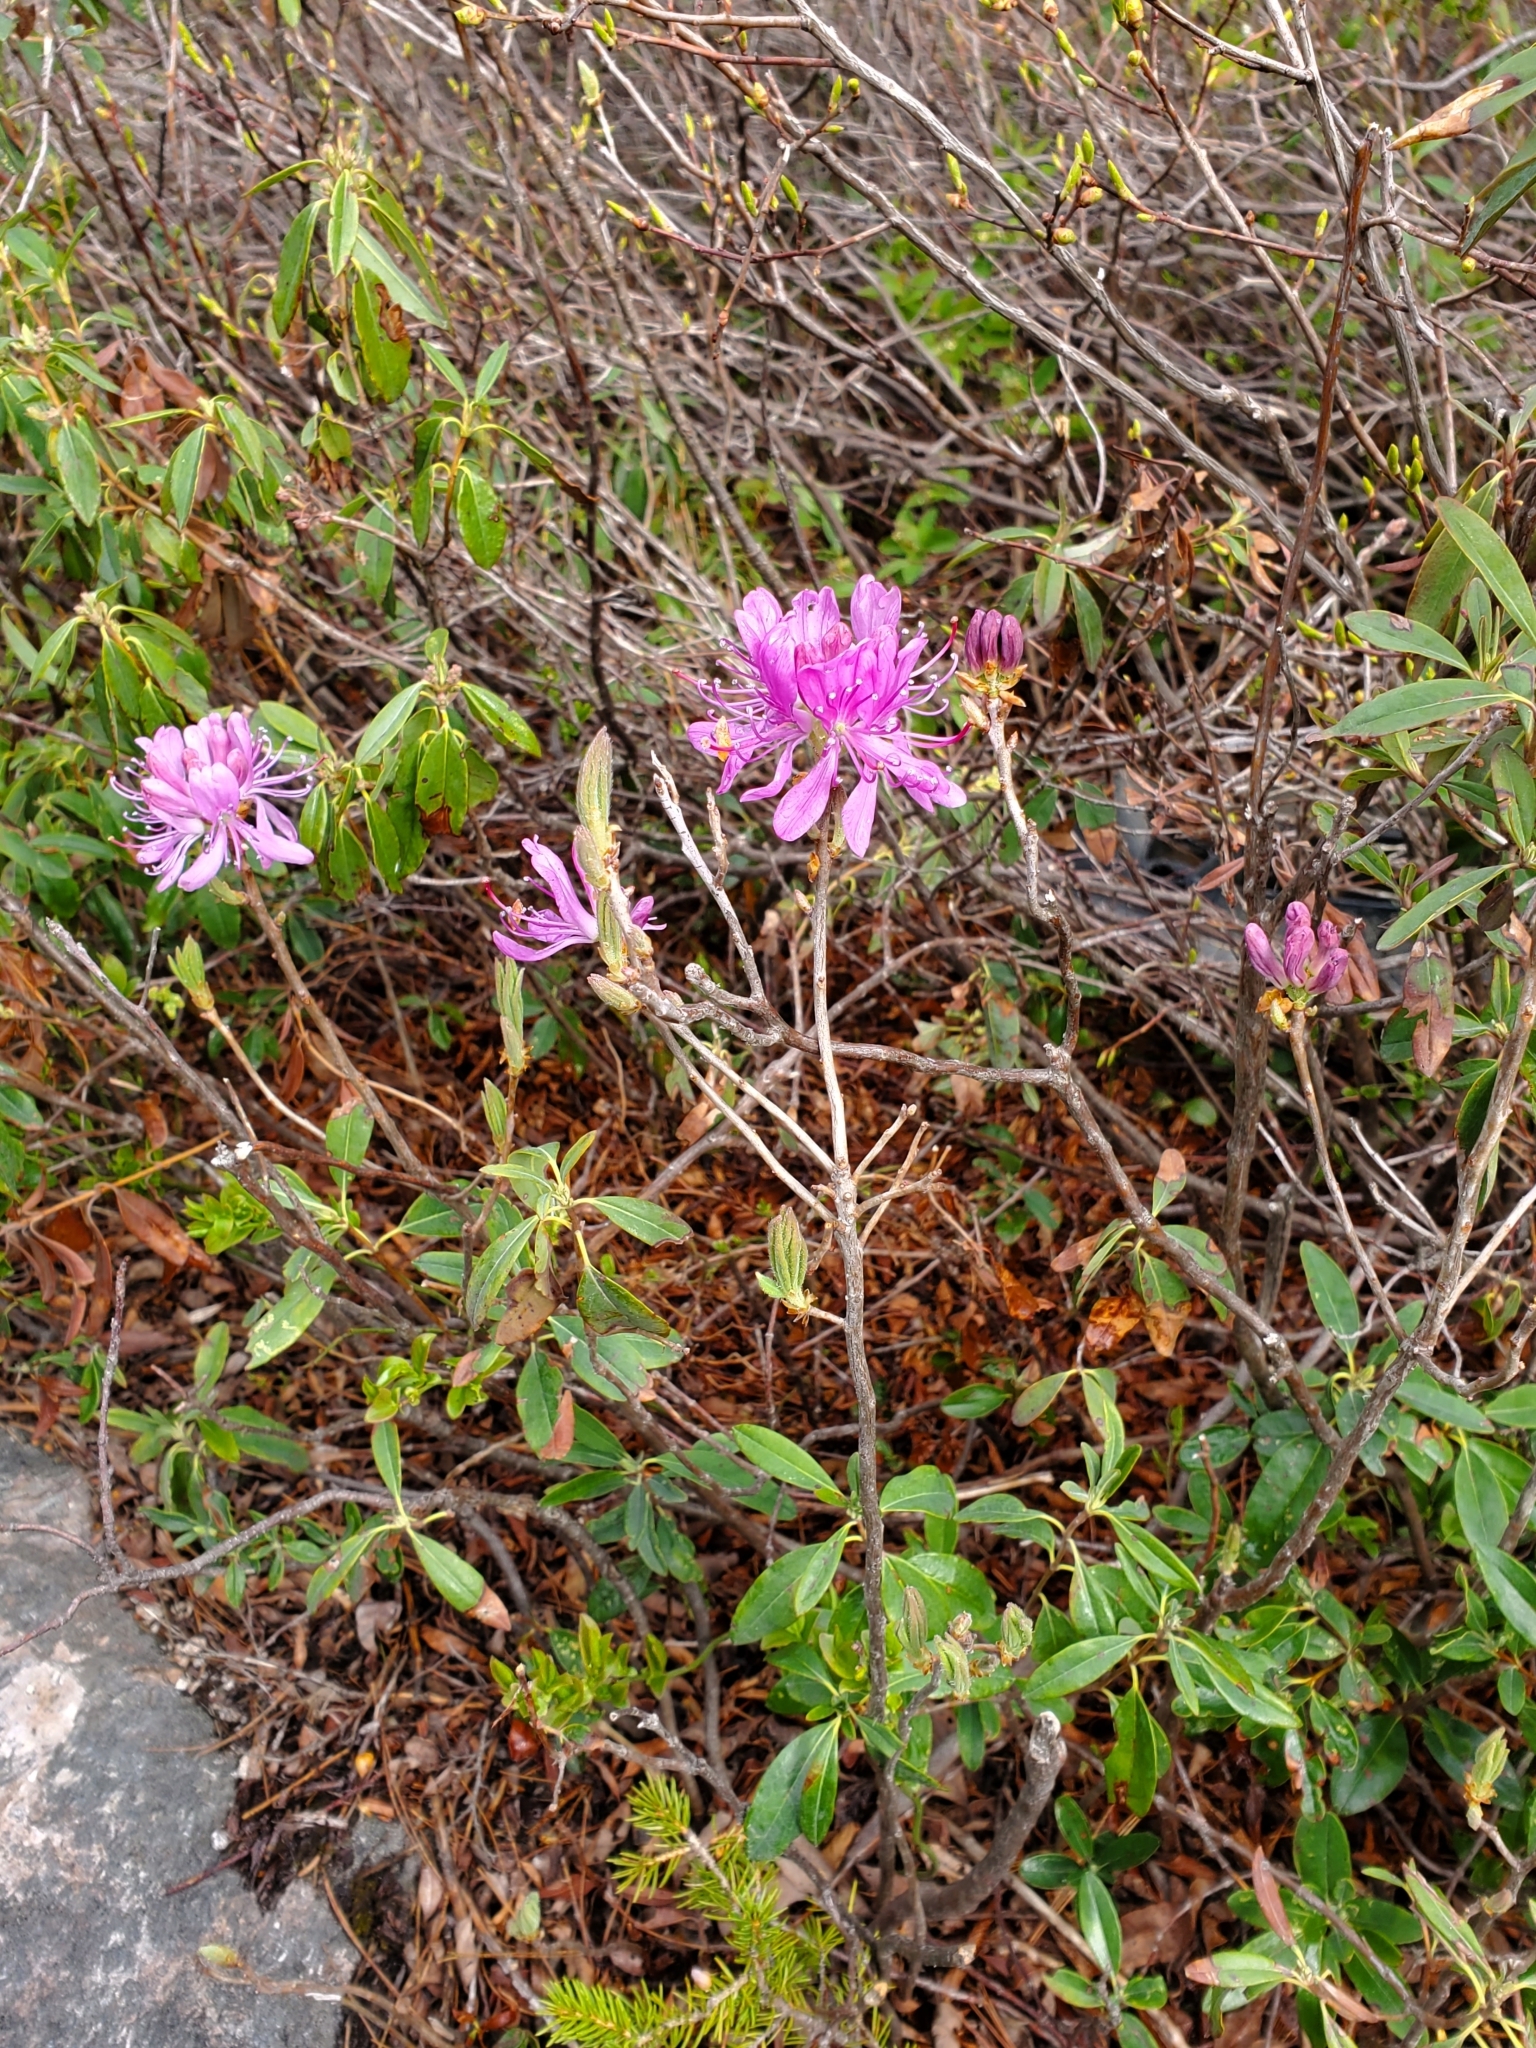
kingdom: Plantae
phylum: Tracheophyta
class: Magnoliopsida
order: Ericales
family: Ericaceae
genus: Rhododendron
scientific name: Rhododendron canadense
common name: Rhodora
